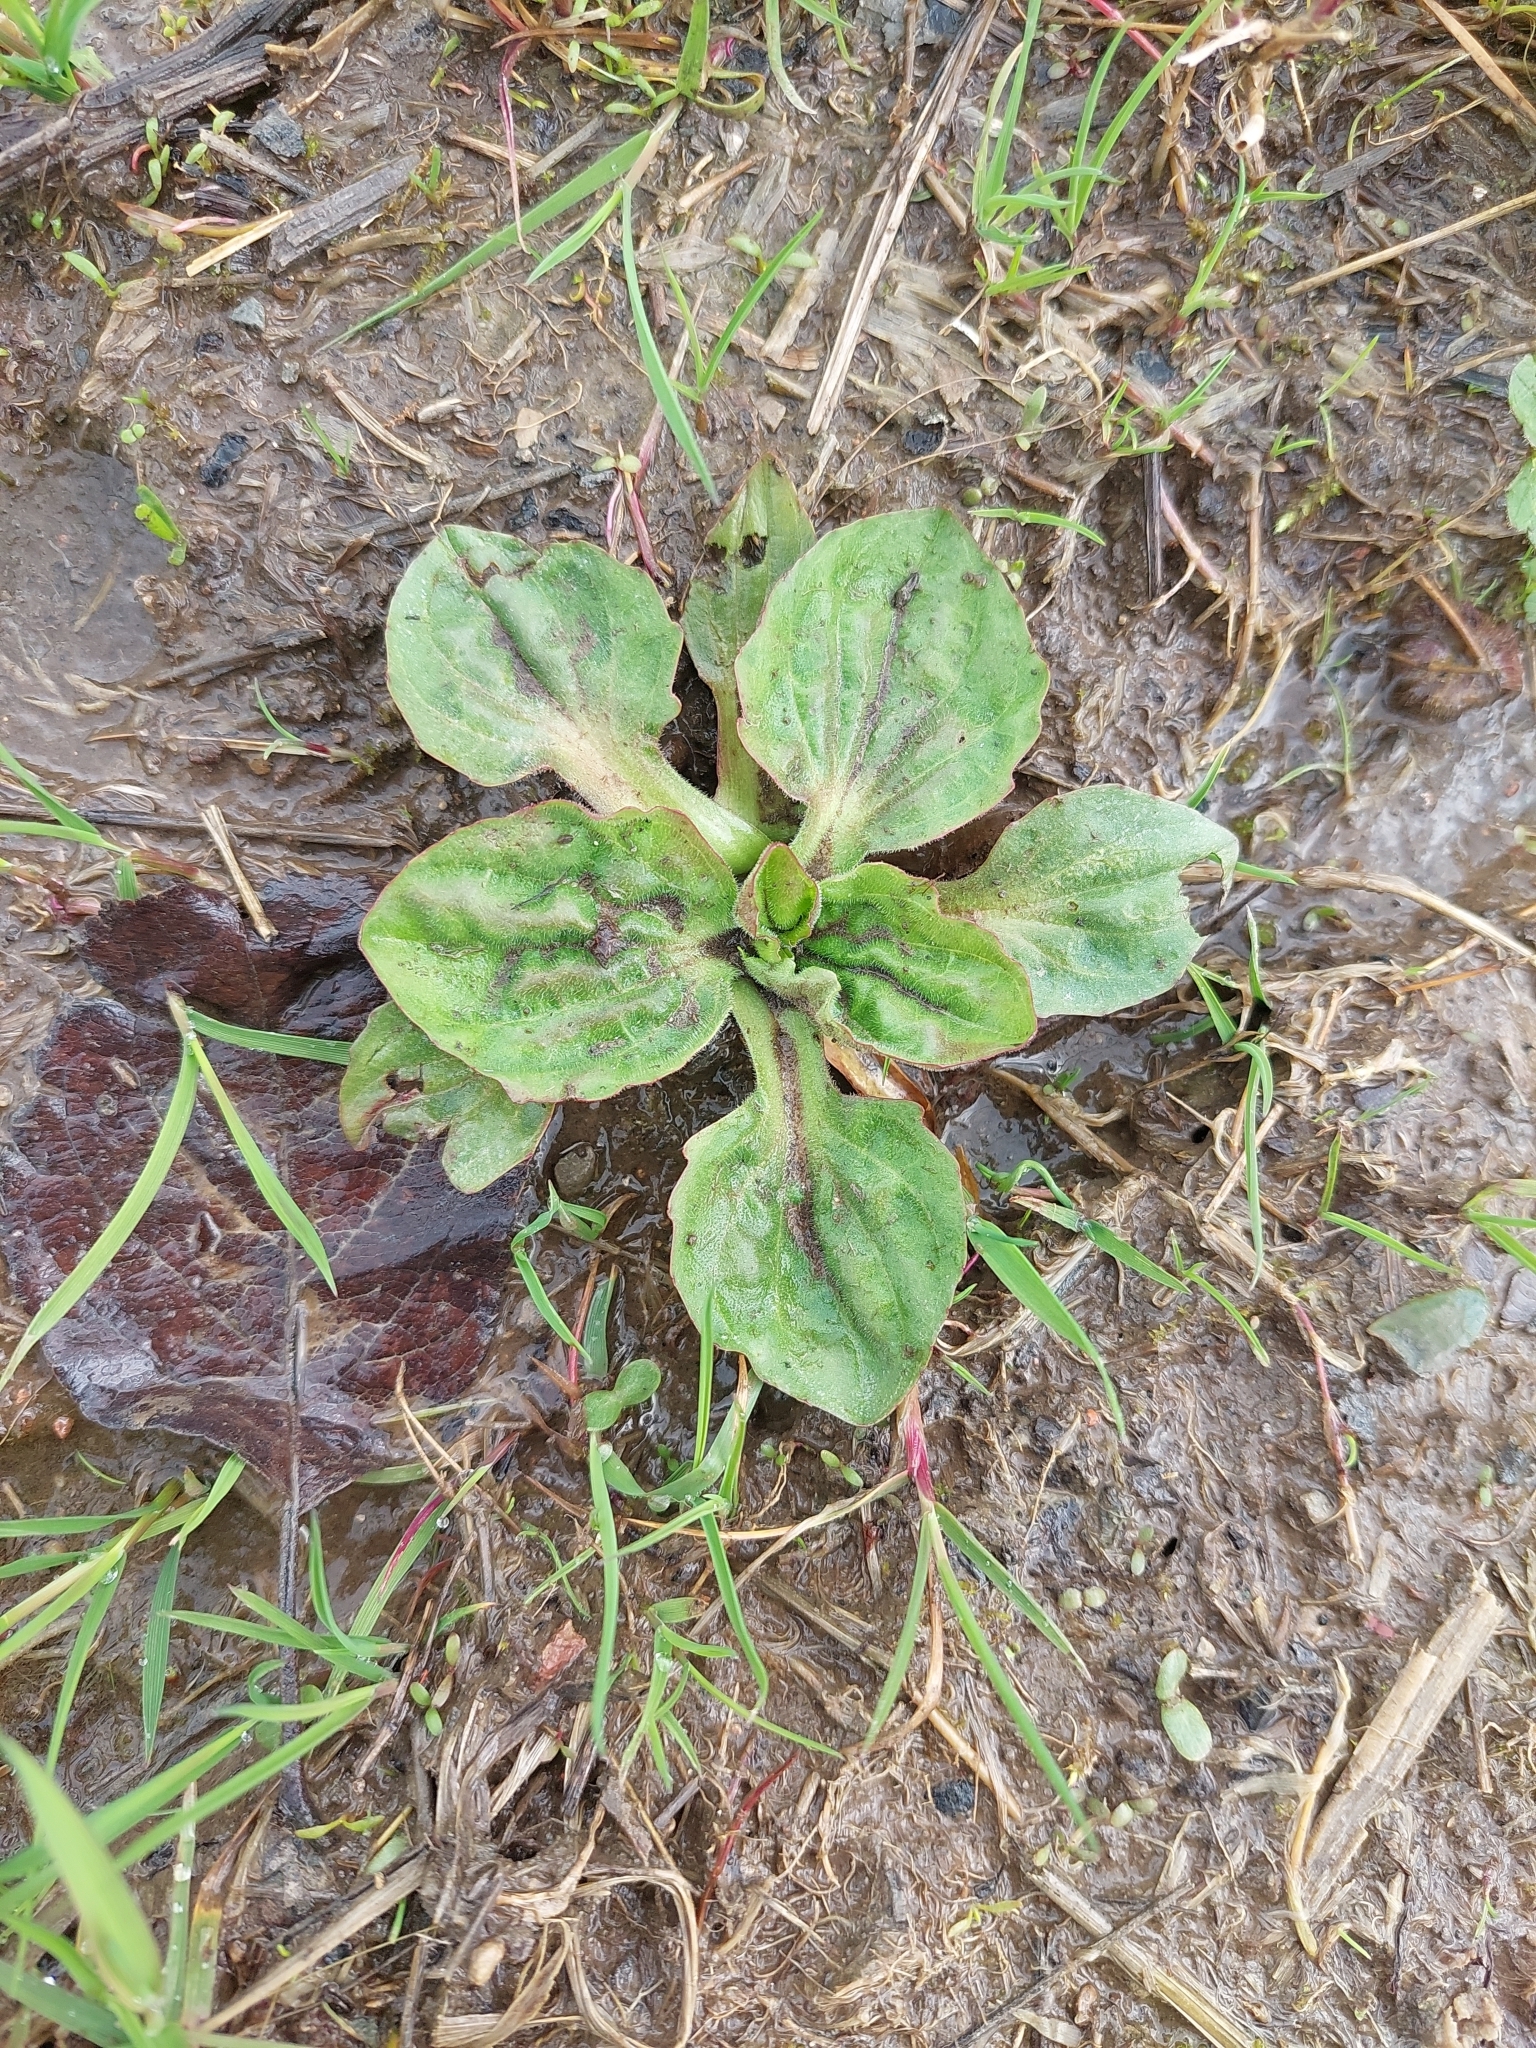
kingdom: Plantae
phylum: Tracheophyta
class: Magnoliopsida
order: Lamiales
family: Plantaginaceae
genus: Plantago
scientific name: Plantago major
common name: Common plantain
